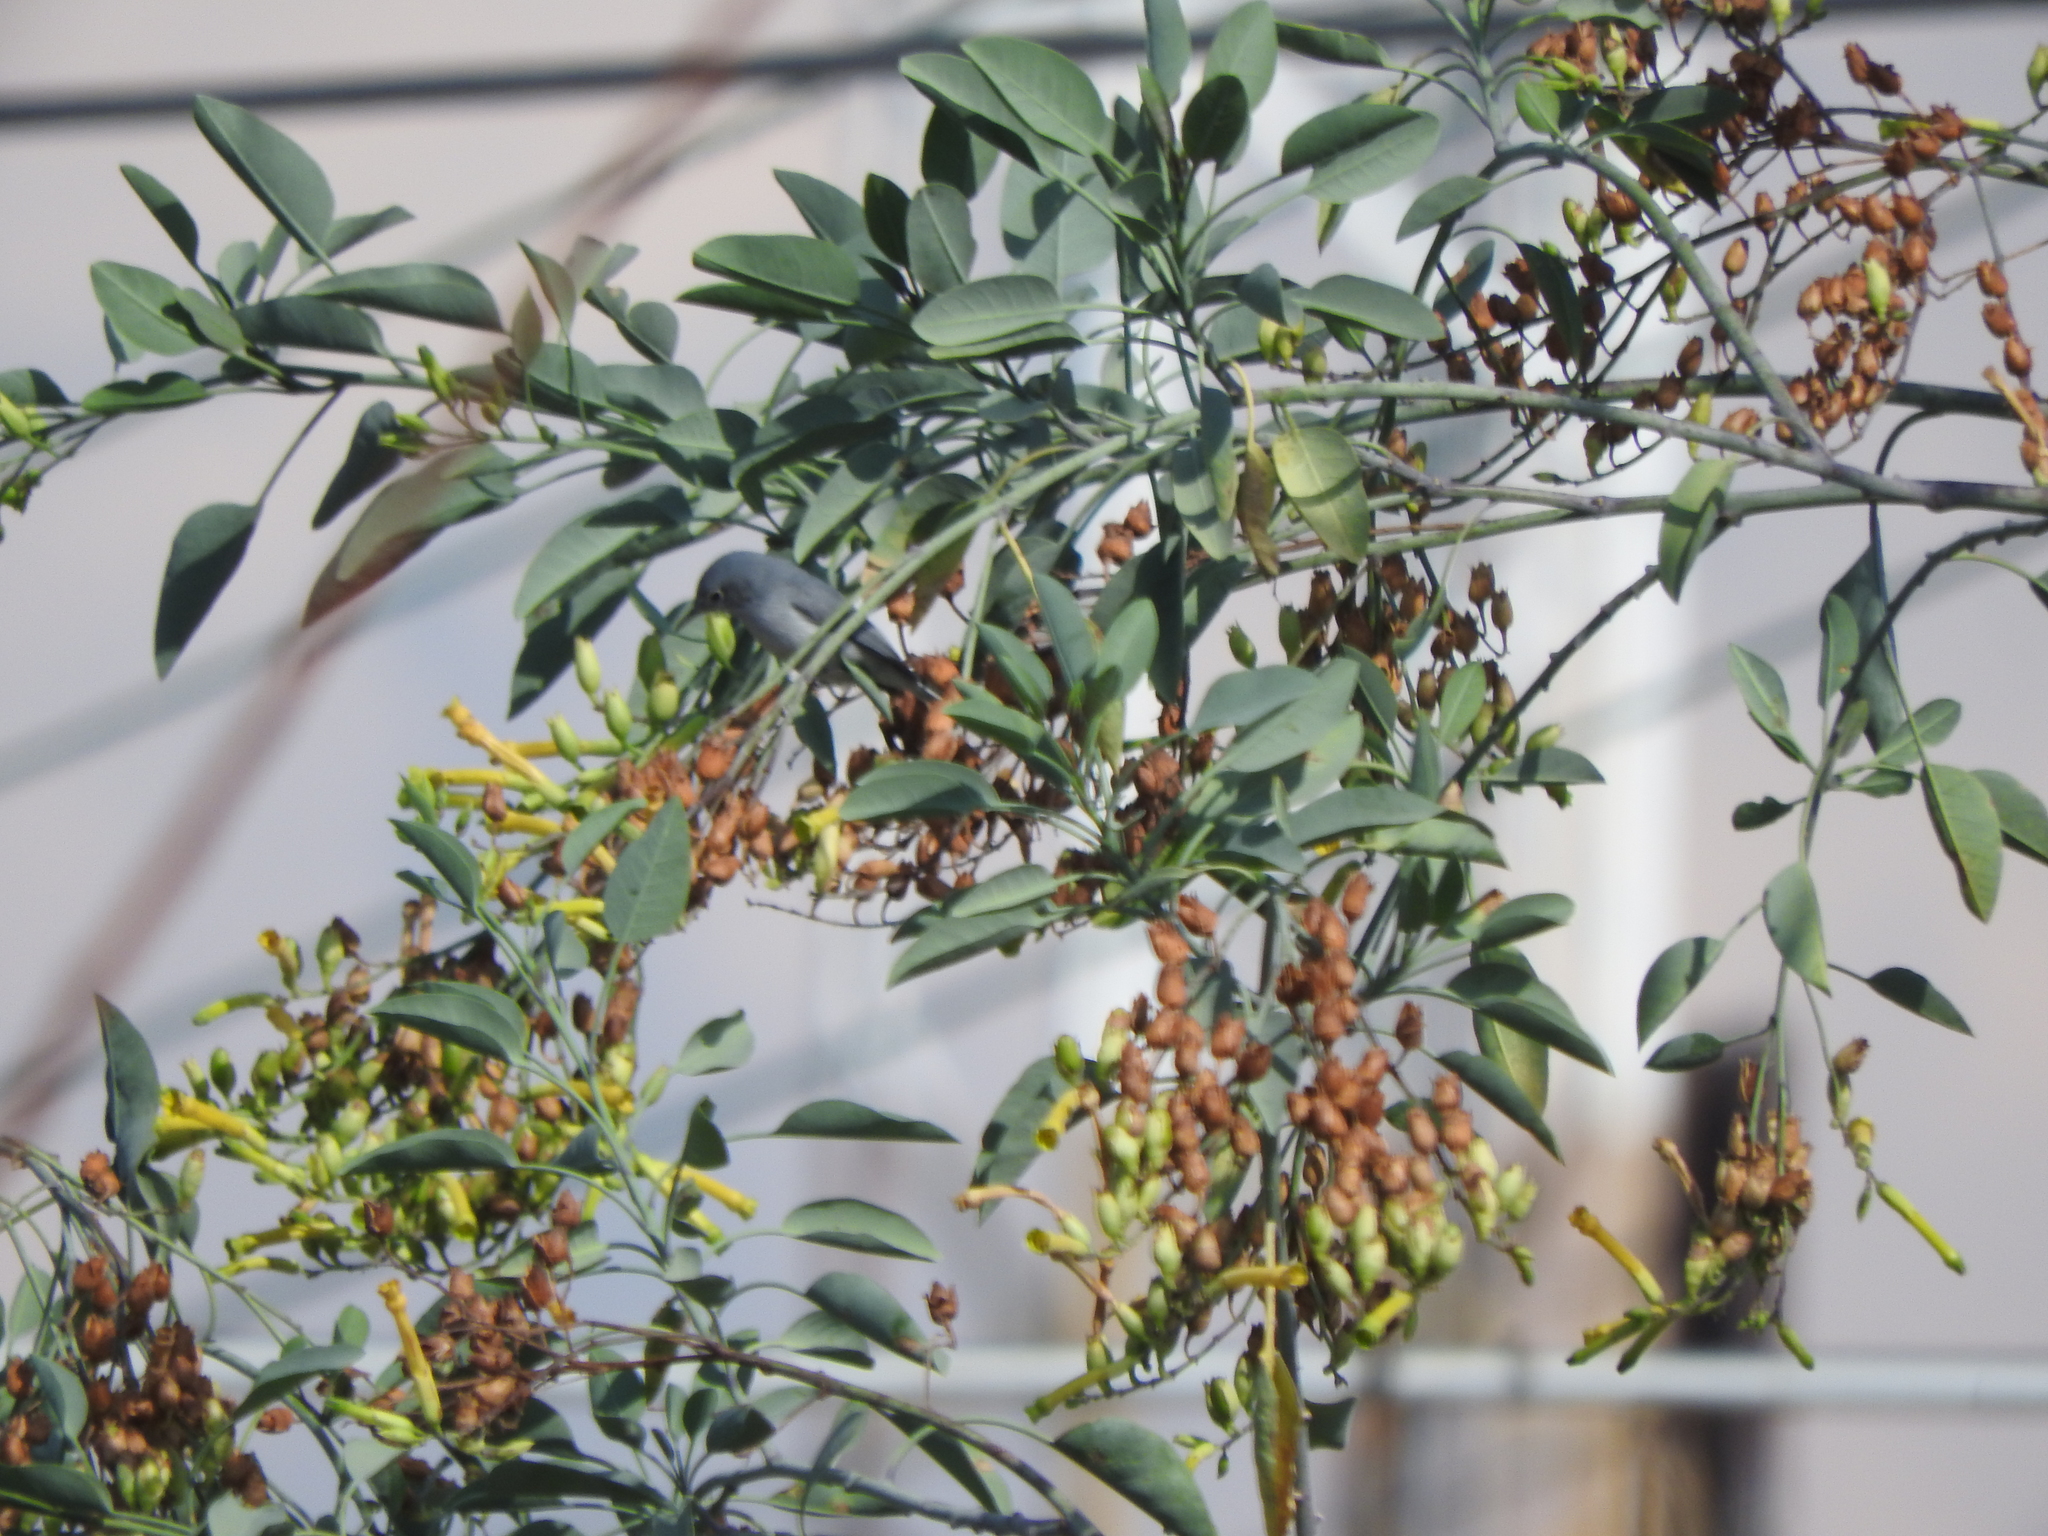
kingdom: Animalia
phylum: Chordata
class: Aves
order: Passeriformes
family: Polioptilidae
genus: Polioptila
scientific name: Polioptila caerulea
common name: Blue-gray gnatcatcher
